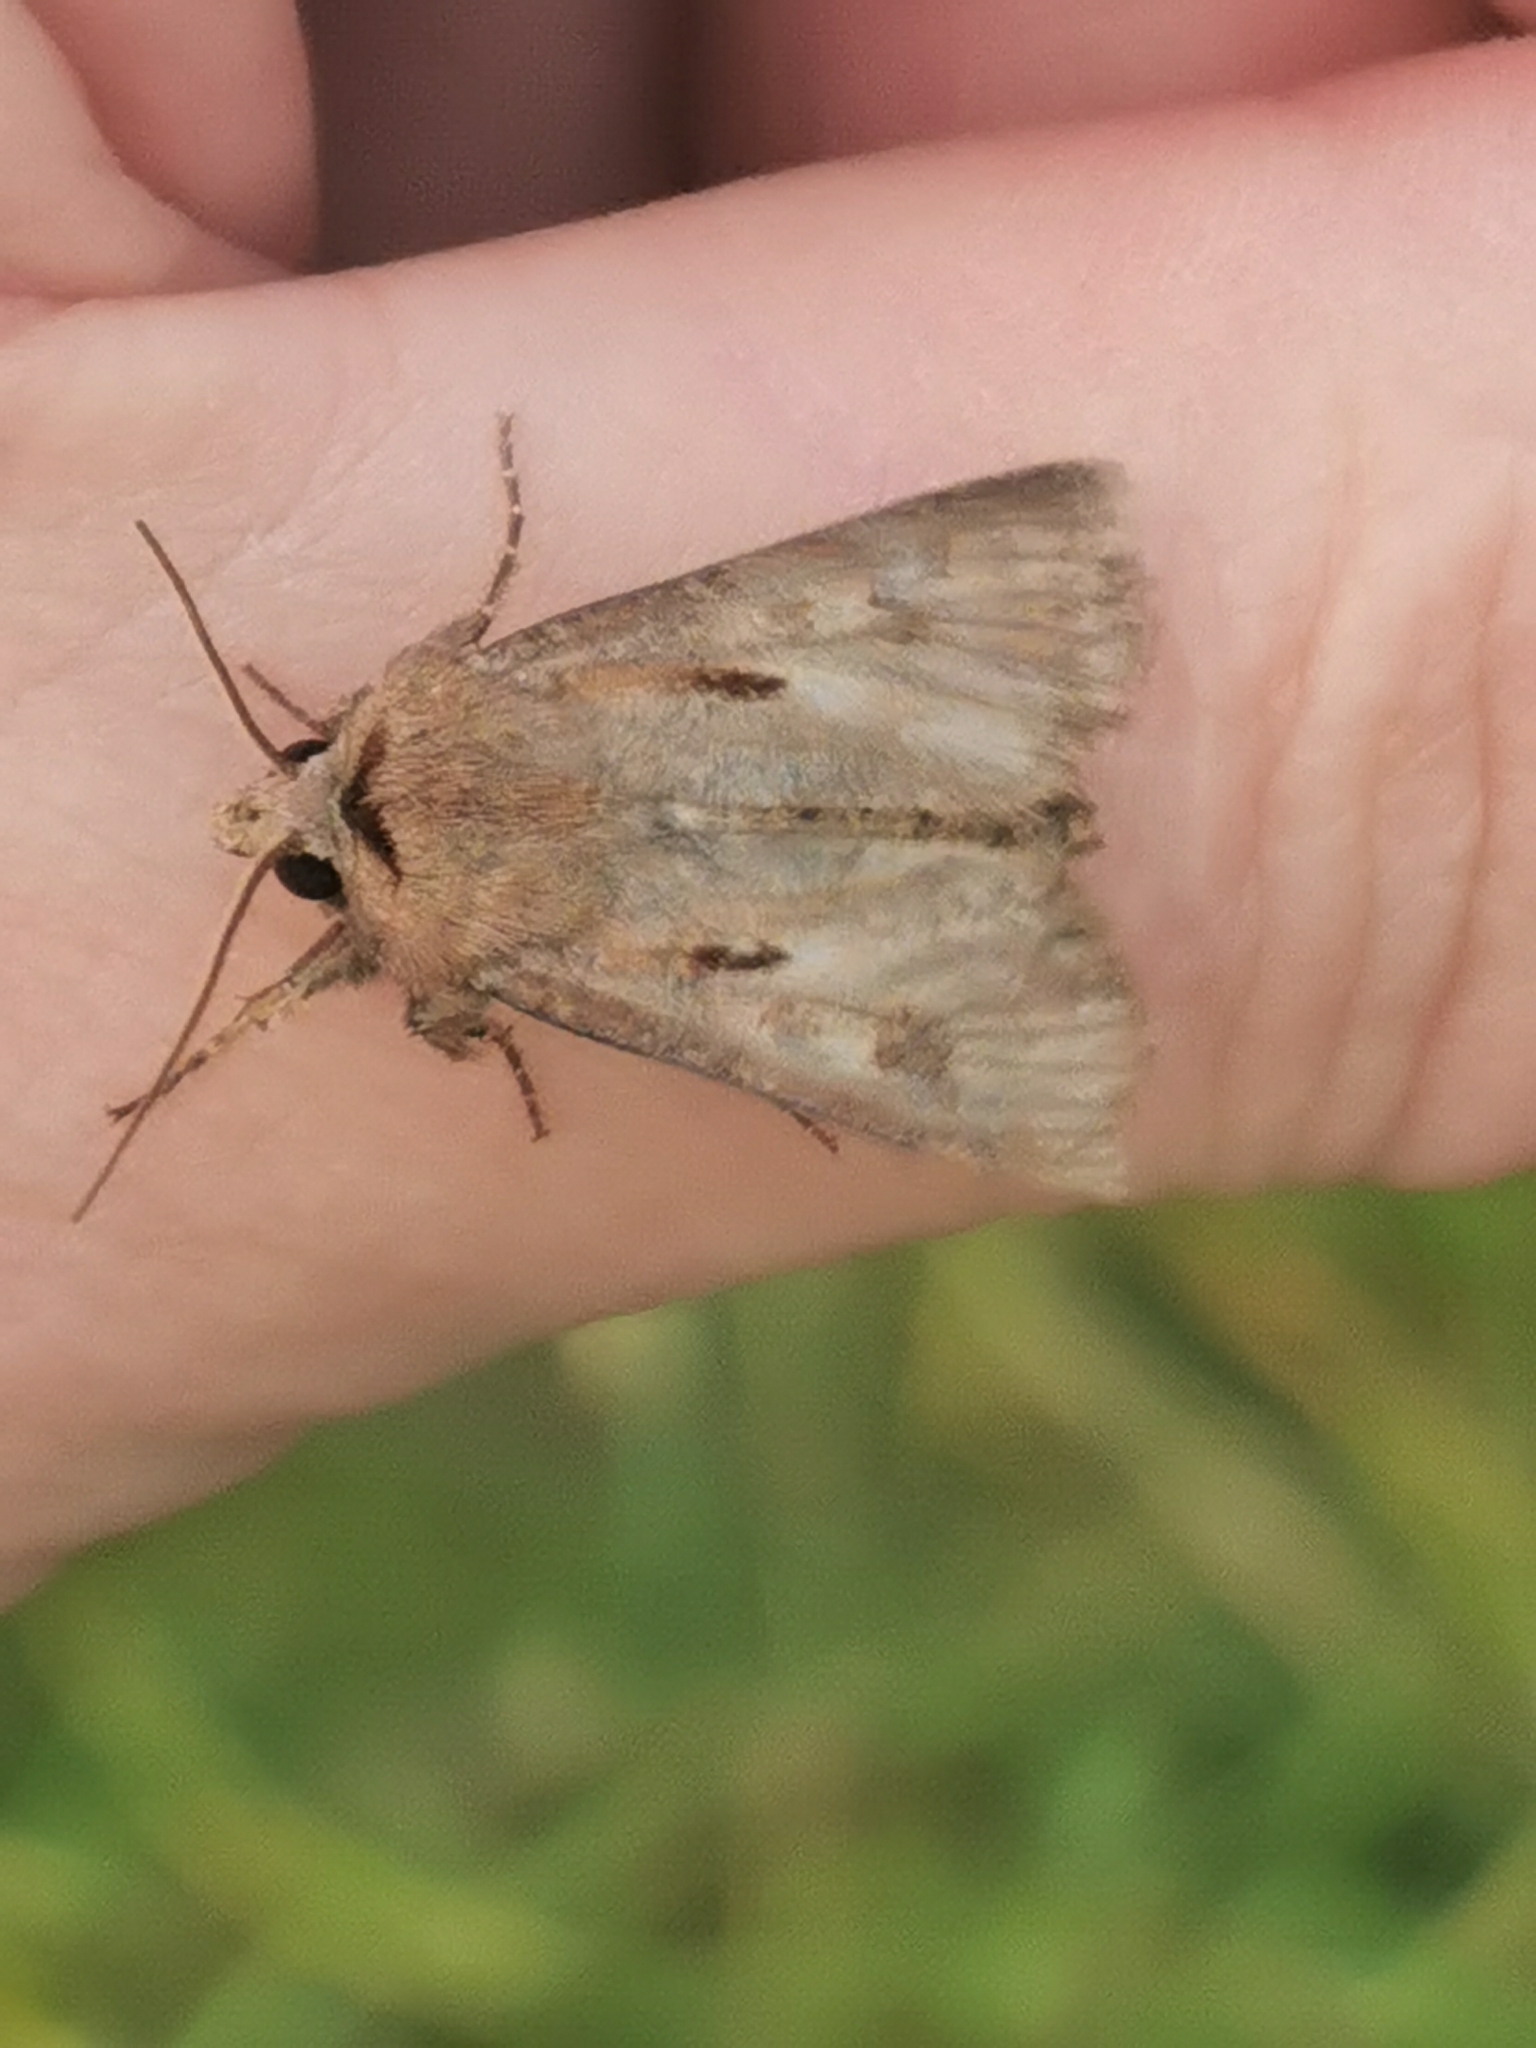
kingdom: Animalia
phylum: Arthropoda
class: Insecta
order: Lepidoptera
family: Noctuidae
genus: Agrotis
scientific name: Agrotis exclamationis
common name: Heart and dart
